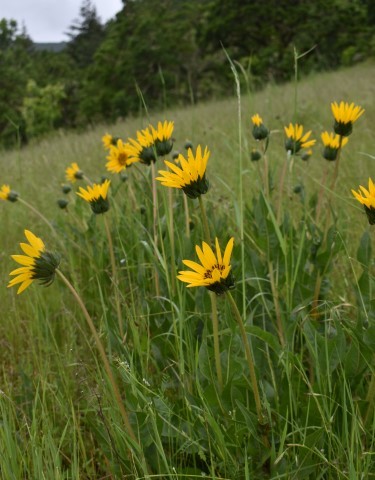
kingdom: Plantae
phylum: Tracheophyta
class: Magnoliopsida
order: Asterales
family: Asteraceae
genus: Wyethia
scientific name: Wyethia angustifolia
